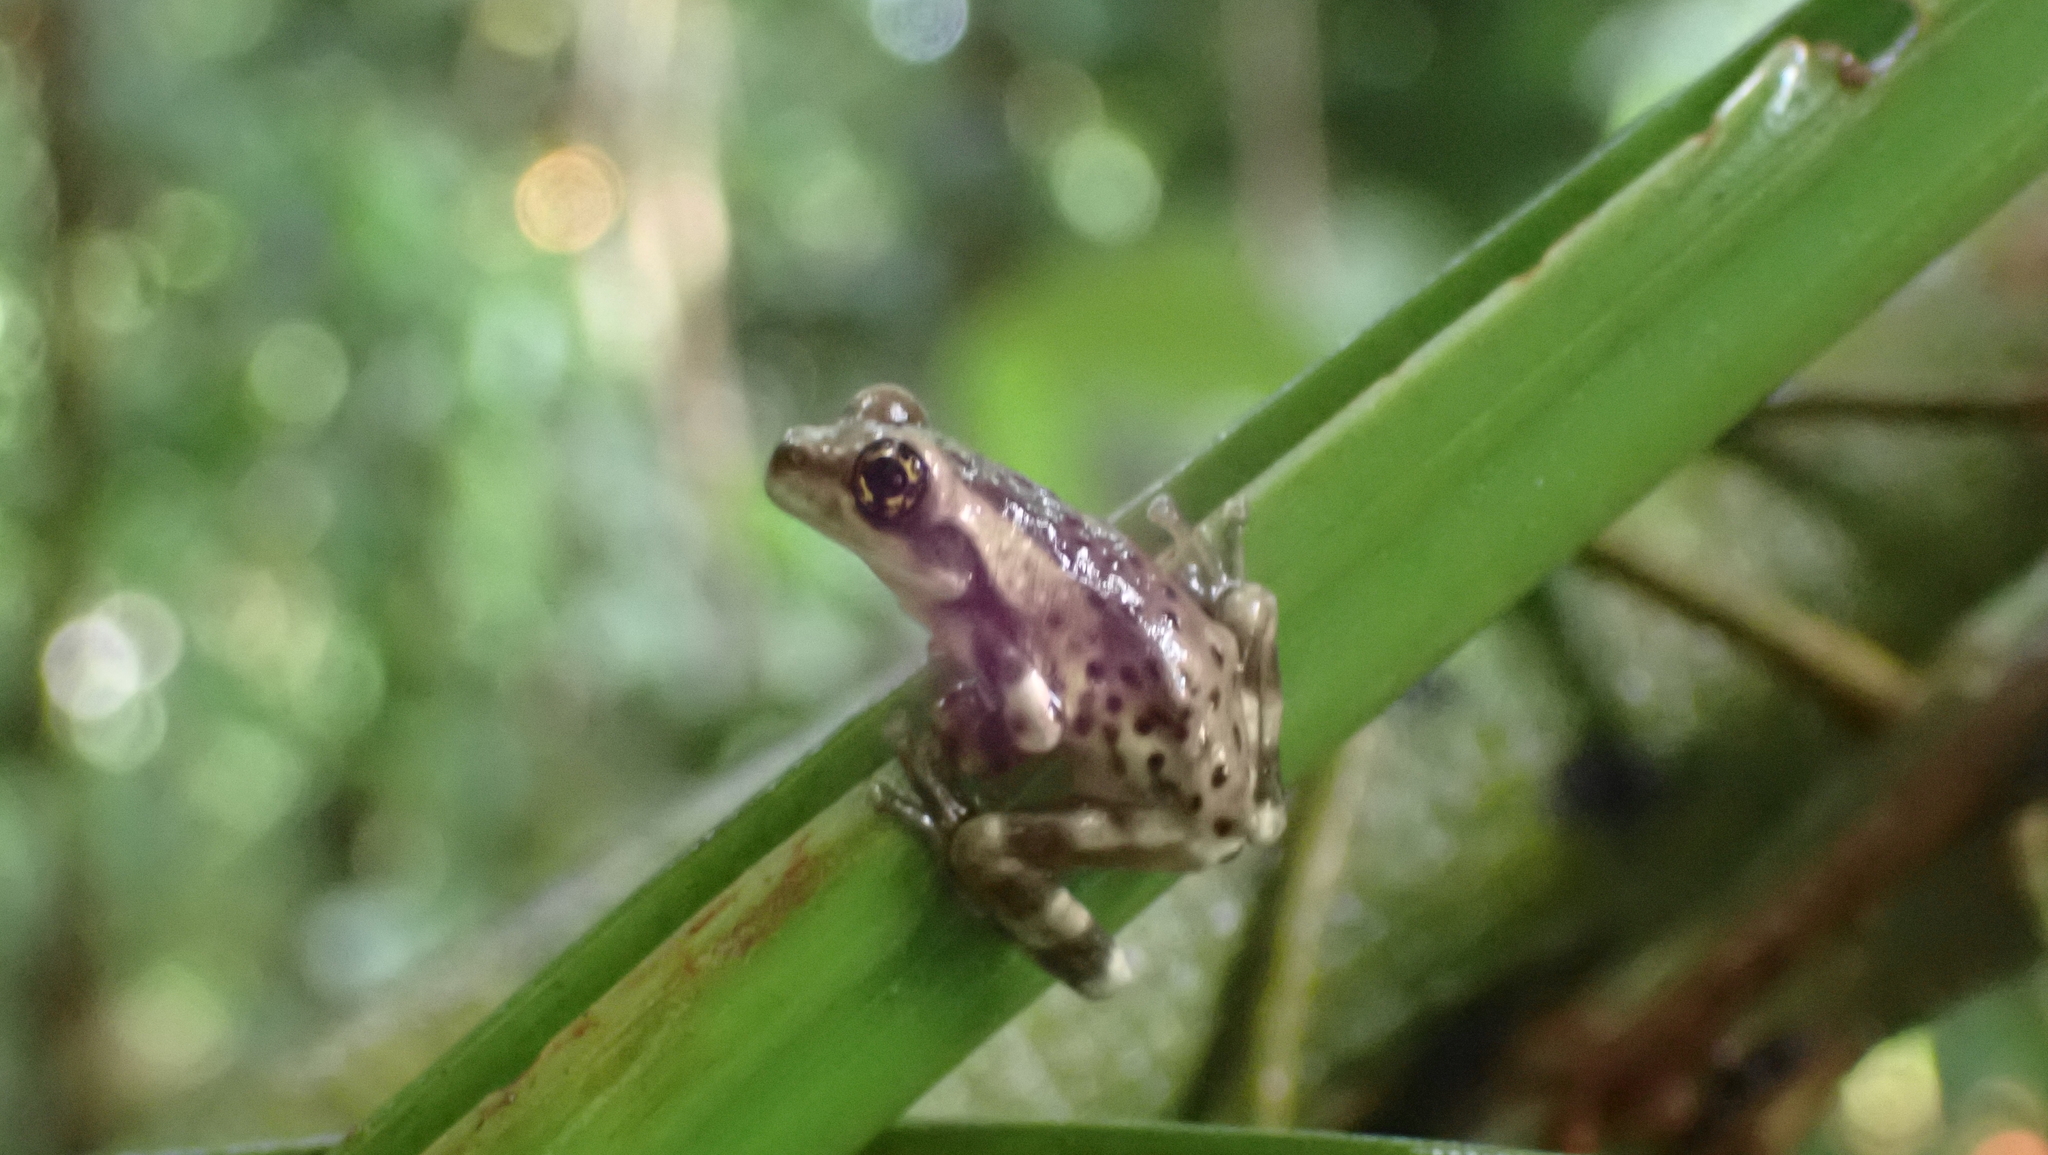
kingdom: Animalia
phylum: Chordata
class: Amphibia
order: Anura
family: Hylidae
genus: Trachycephalus
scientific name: Trachycephalus vermiculatus
